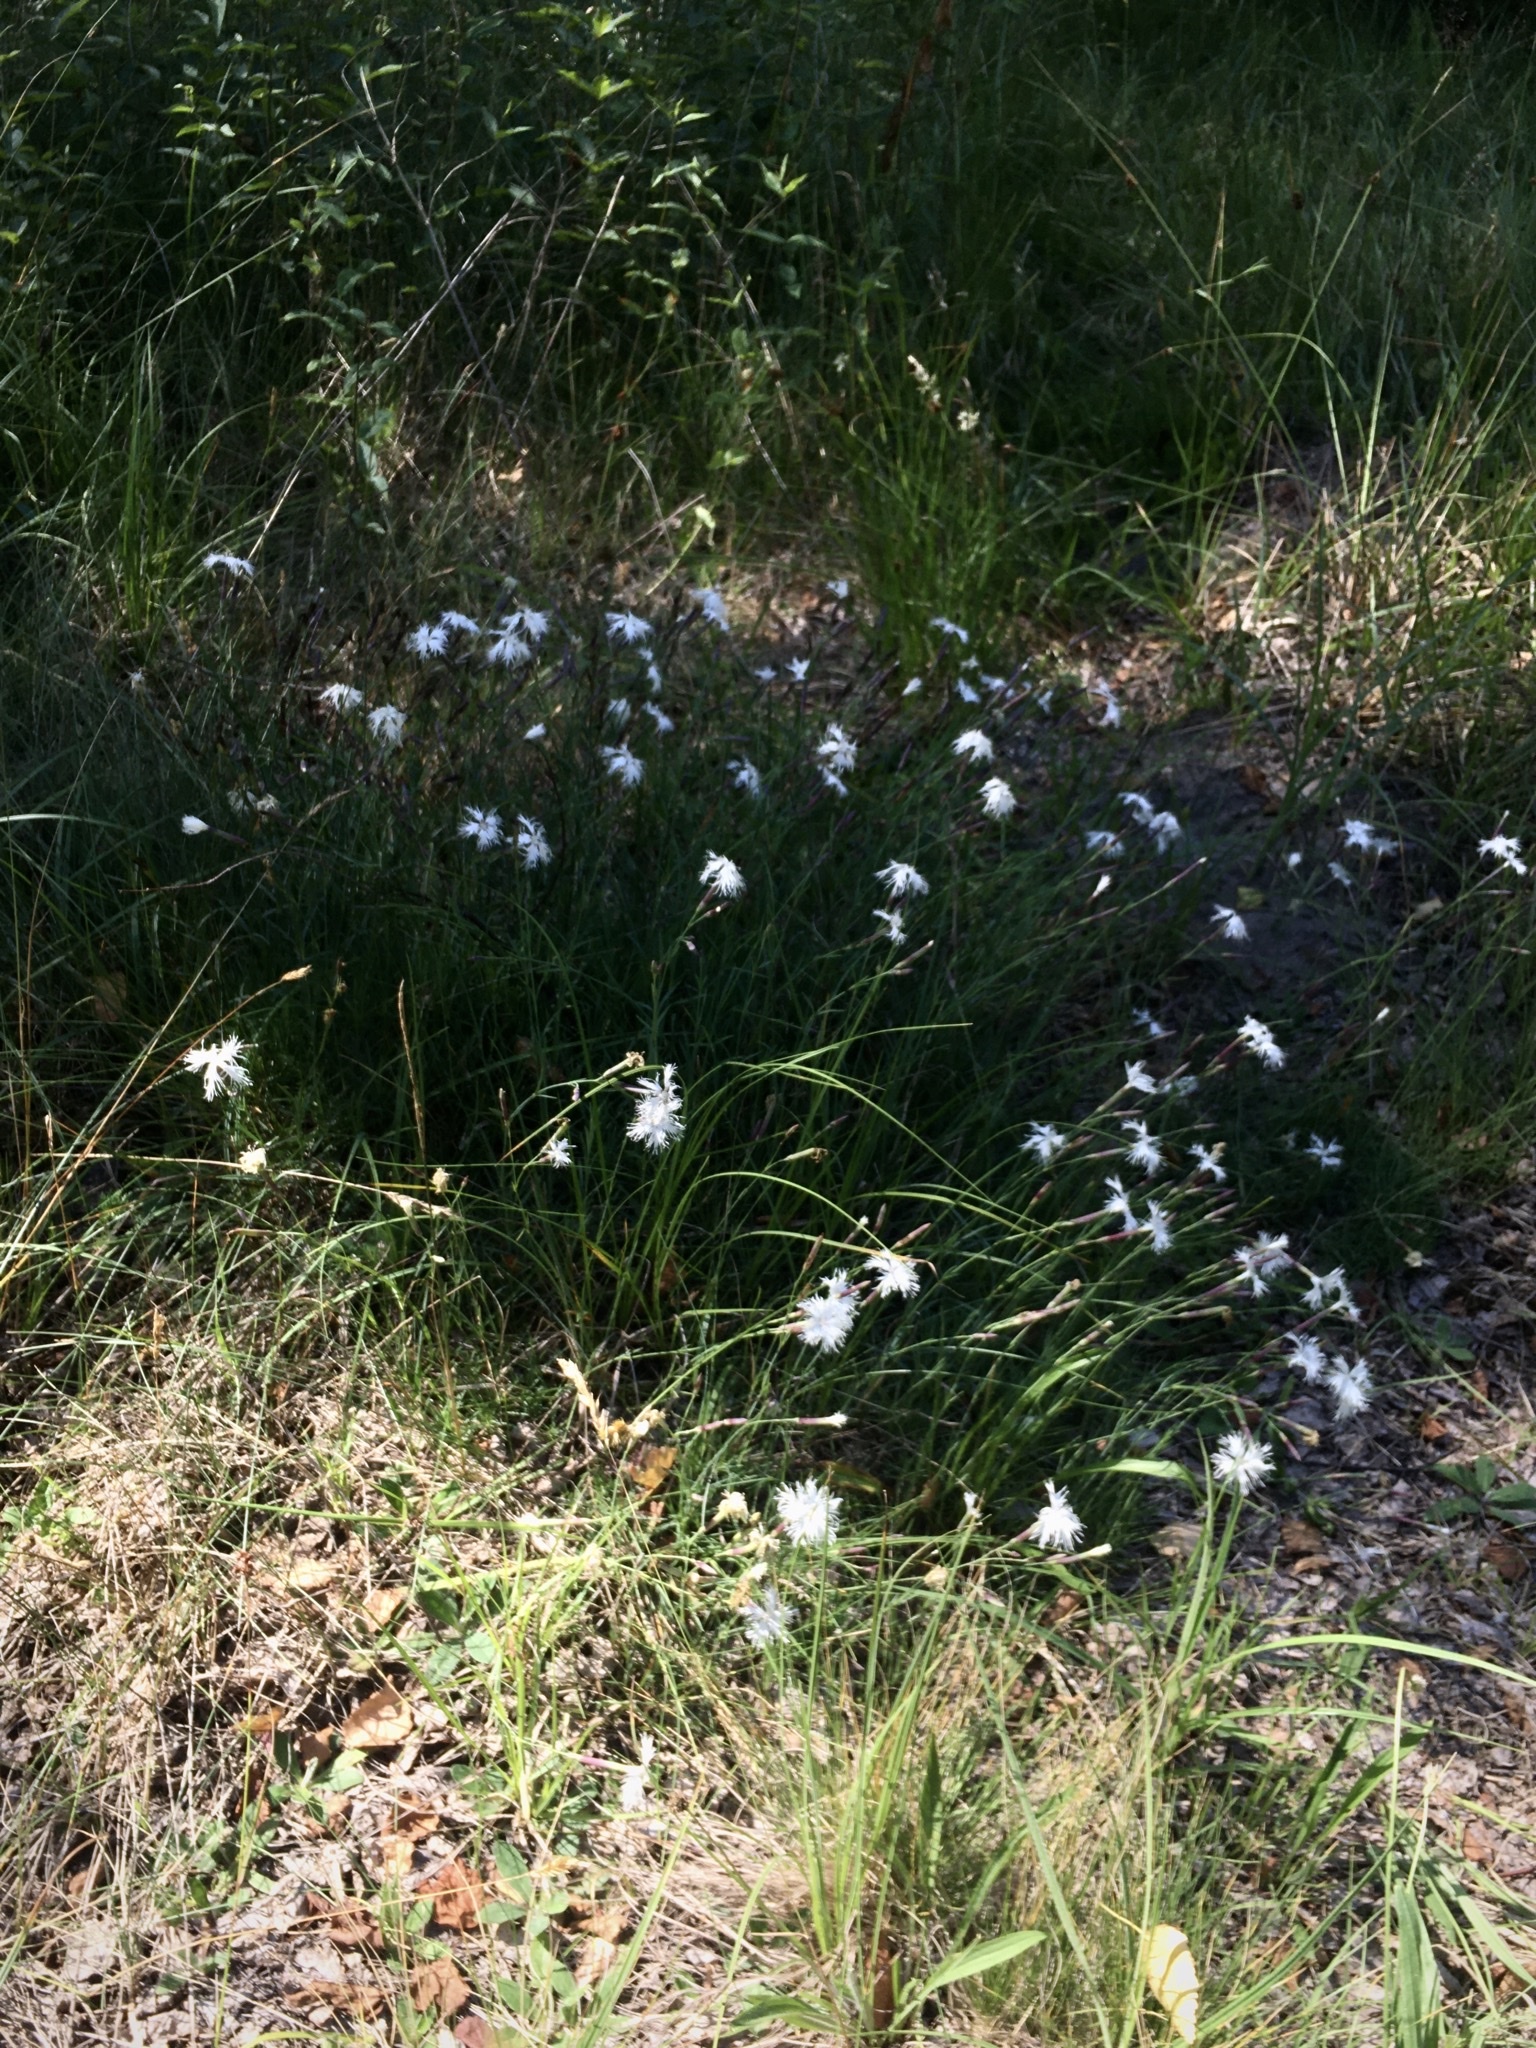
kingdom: Plantae
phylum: Tracheophyta
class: Magnoliopsida
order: Caryophyllales
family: Caryophyllaceae
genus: Dianthus
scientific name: Dianthus superbus
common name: Fringed pink
